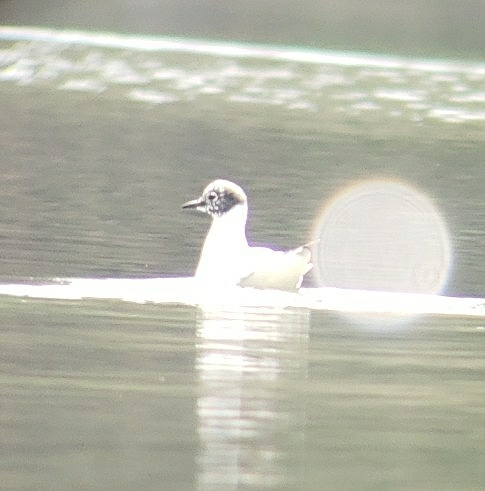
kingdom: Animalia
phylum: Chordata
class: Aves
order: Charadriiformes
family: Laridae
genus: Chroicocephalus
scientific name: Chroicocephalus philadelphia
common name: Bonaparte's gull
